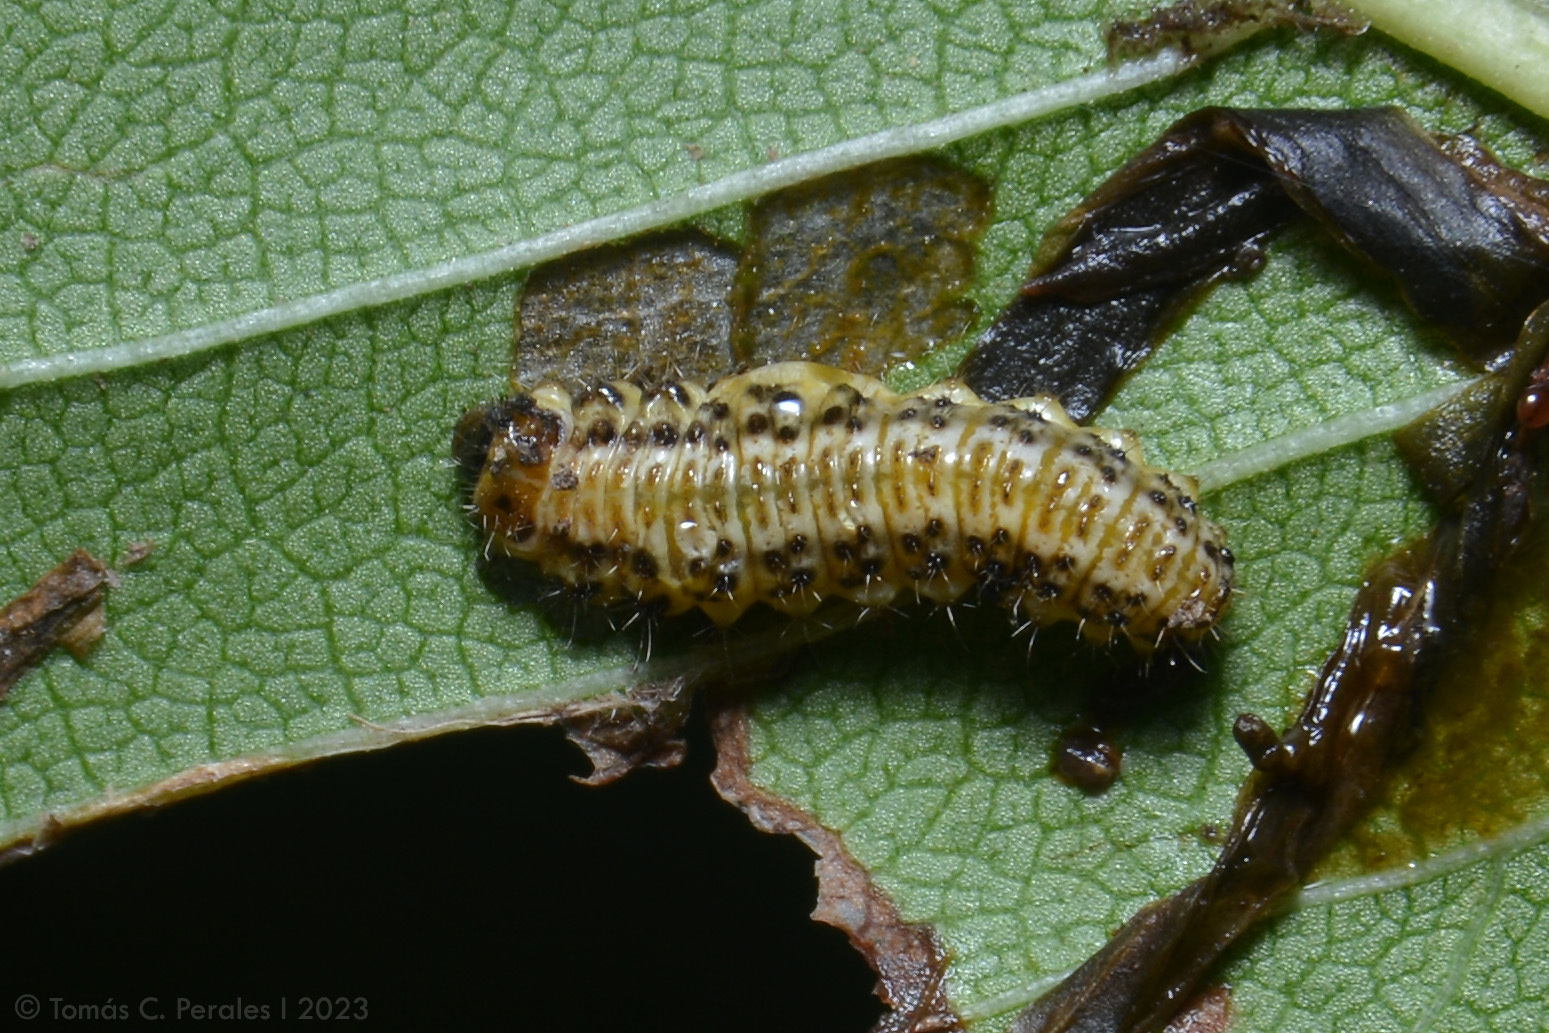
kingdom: Animalia
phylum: Arthropoda
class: Insecta
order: Coleoptera
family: Chrysomelidae
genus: Xanthogaleruca
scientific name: Xanthogaleruca luteola
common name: Elm leaf beetle
